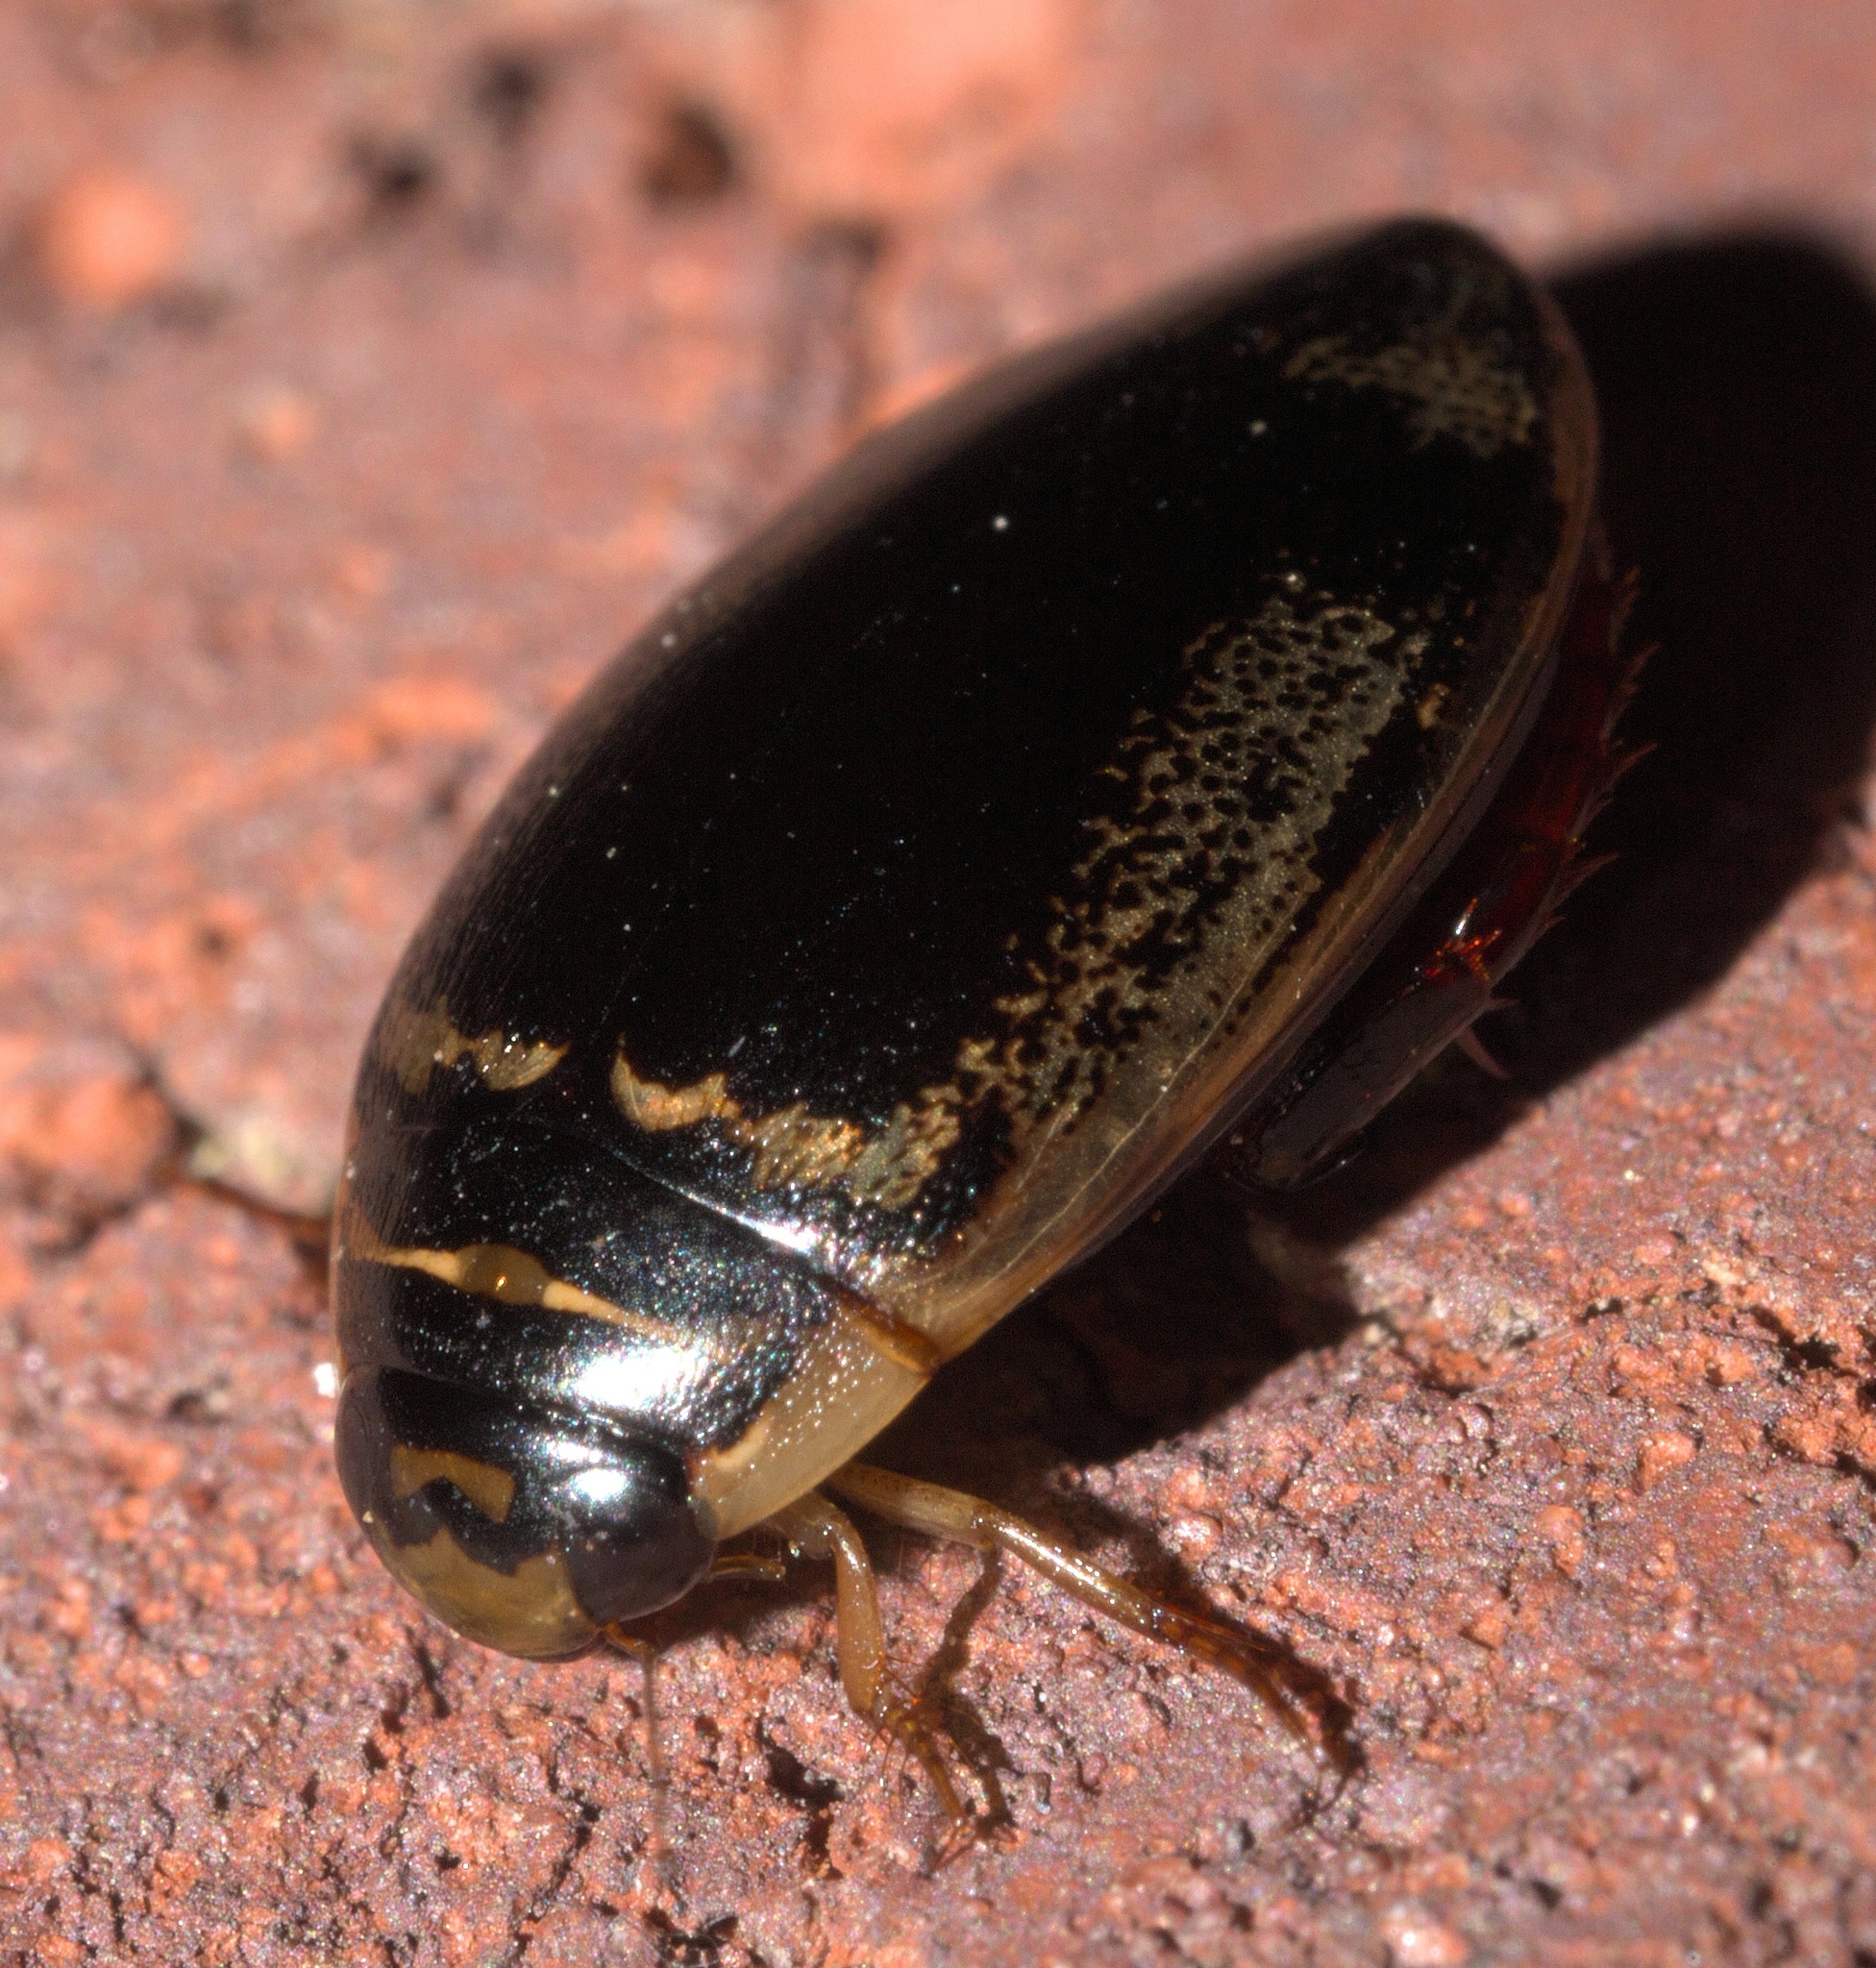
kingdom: Animalia
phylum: Arthropoda
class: Insecta
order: Coleoptera
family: Dytiscidae
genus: Thermonectus
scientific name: Thermonectus basillaris
